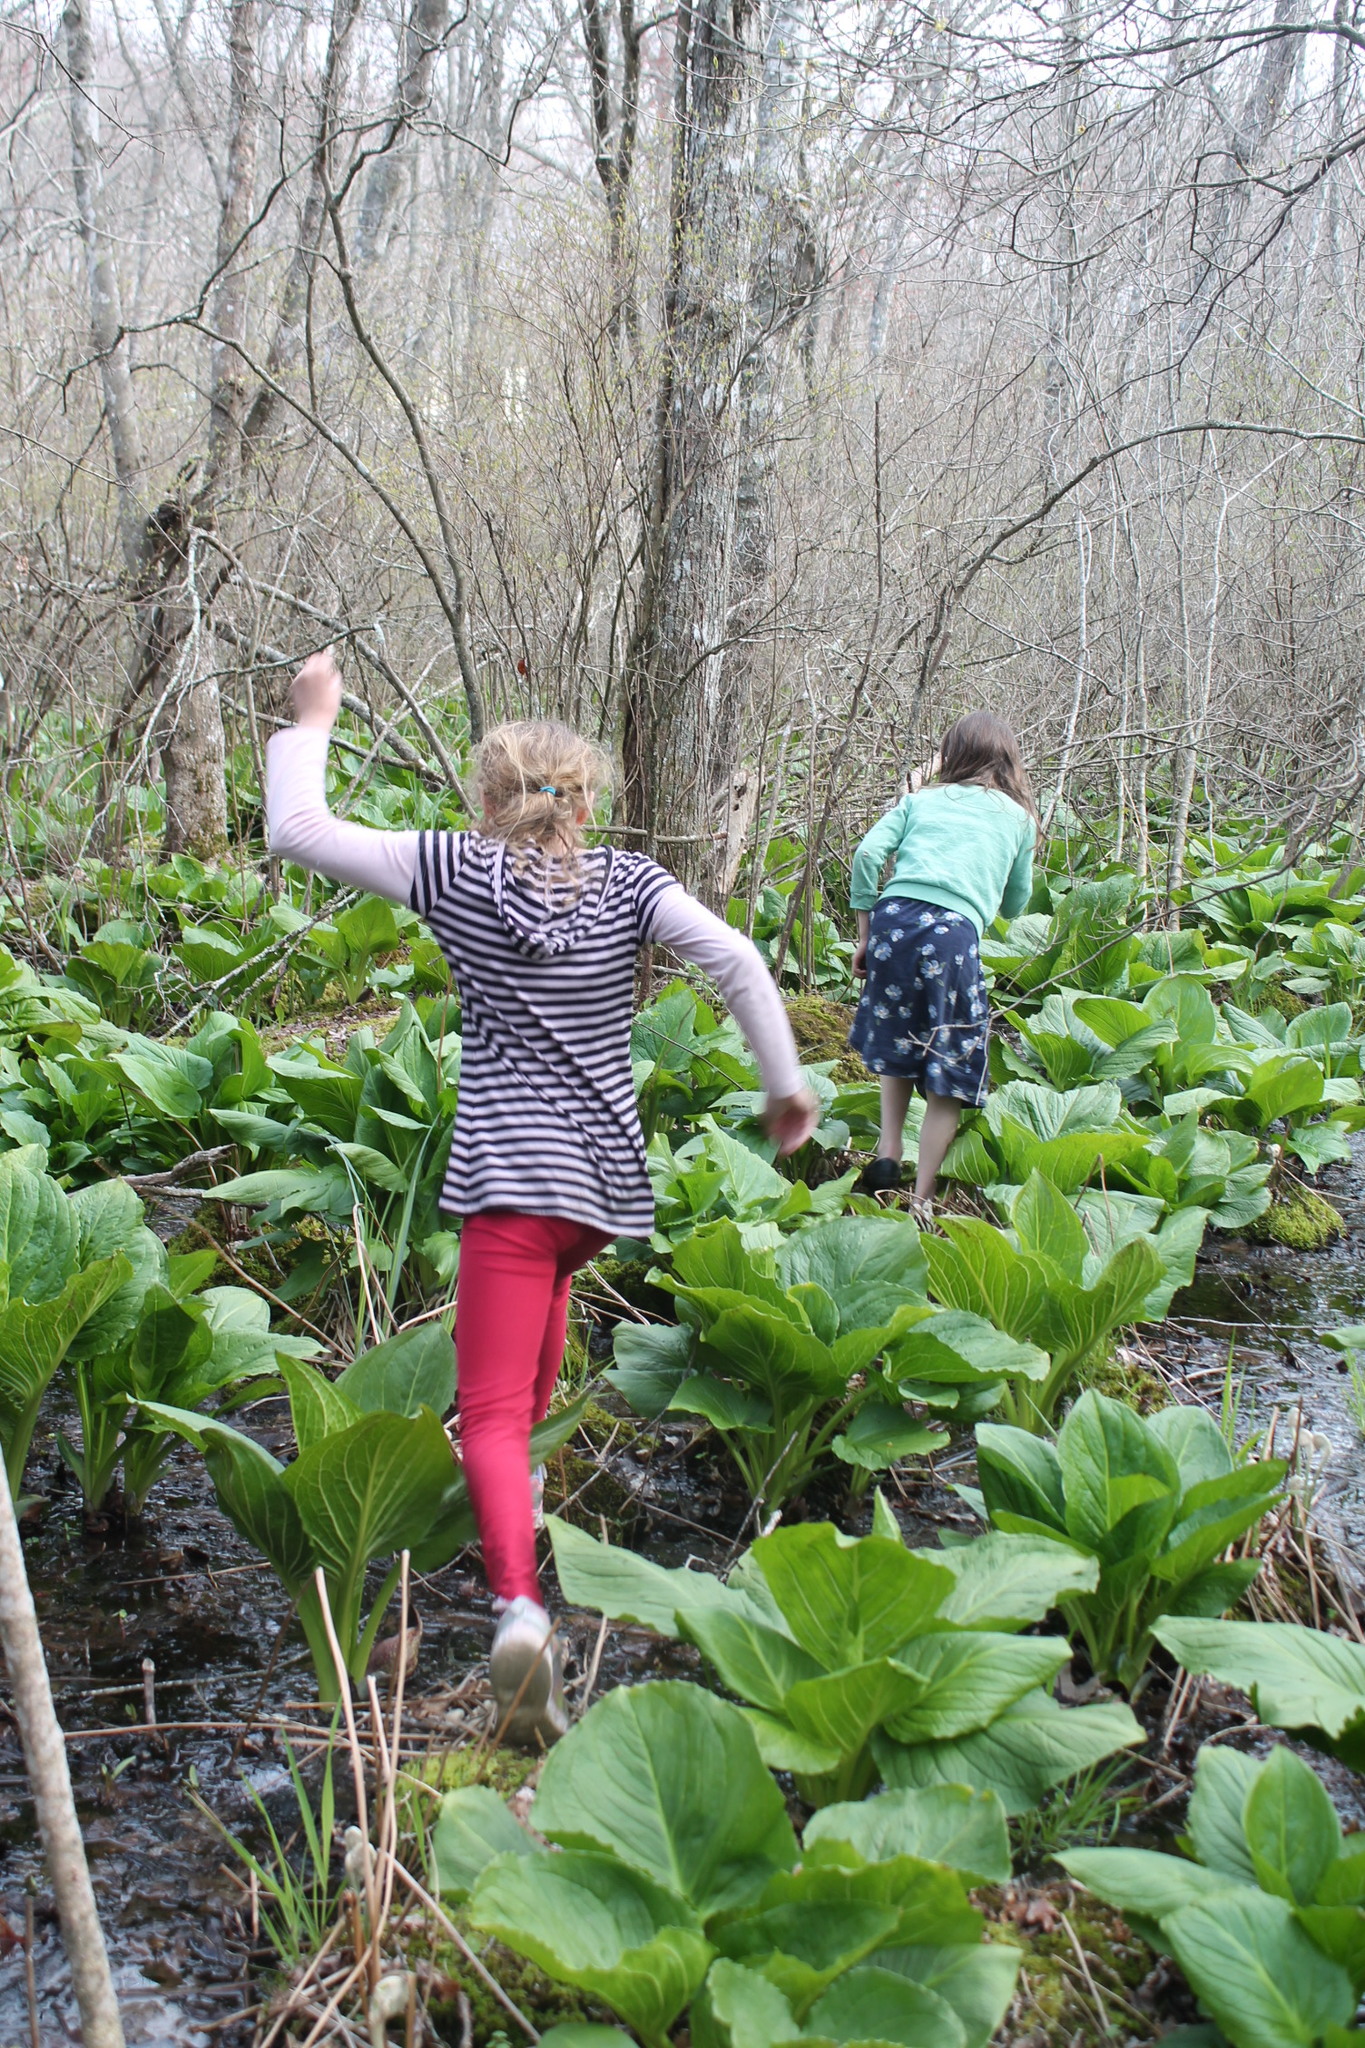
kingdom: Plantae
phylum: Tracheophyta
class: Liliopsida
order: Alismatales
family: Araceae
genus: Symplocarpus
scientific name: Symplocarpus foetidus
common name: Eastern skunk cabbage
